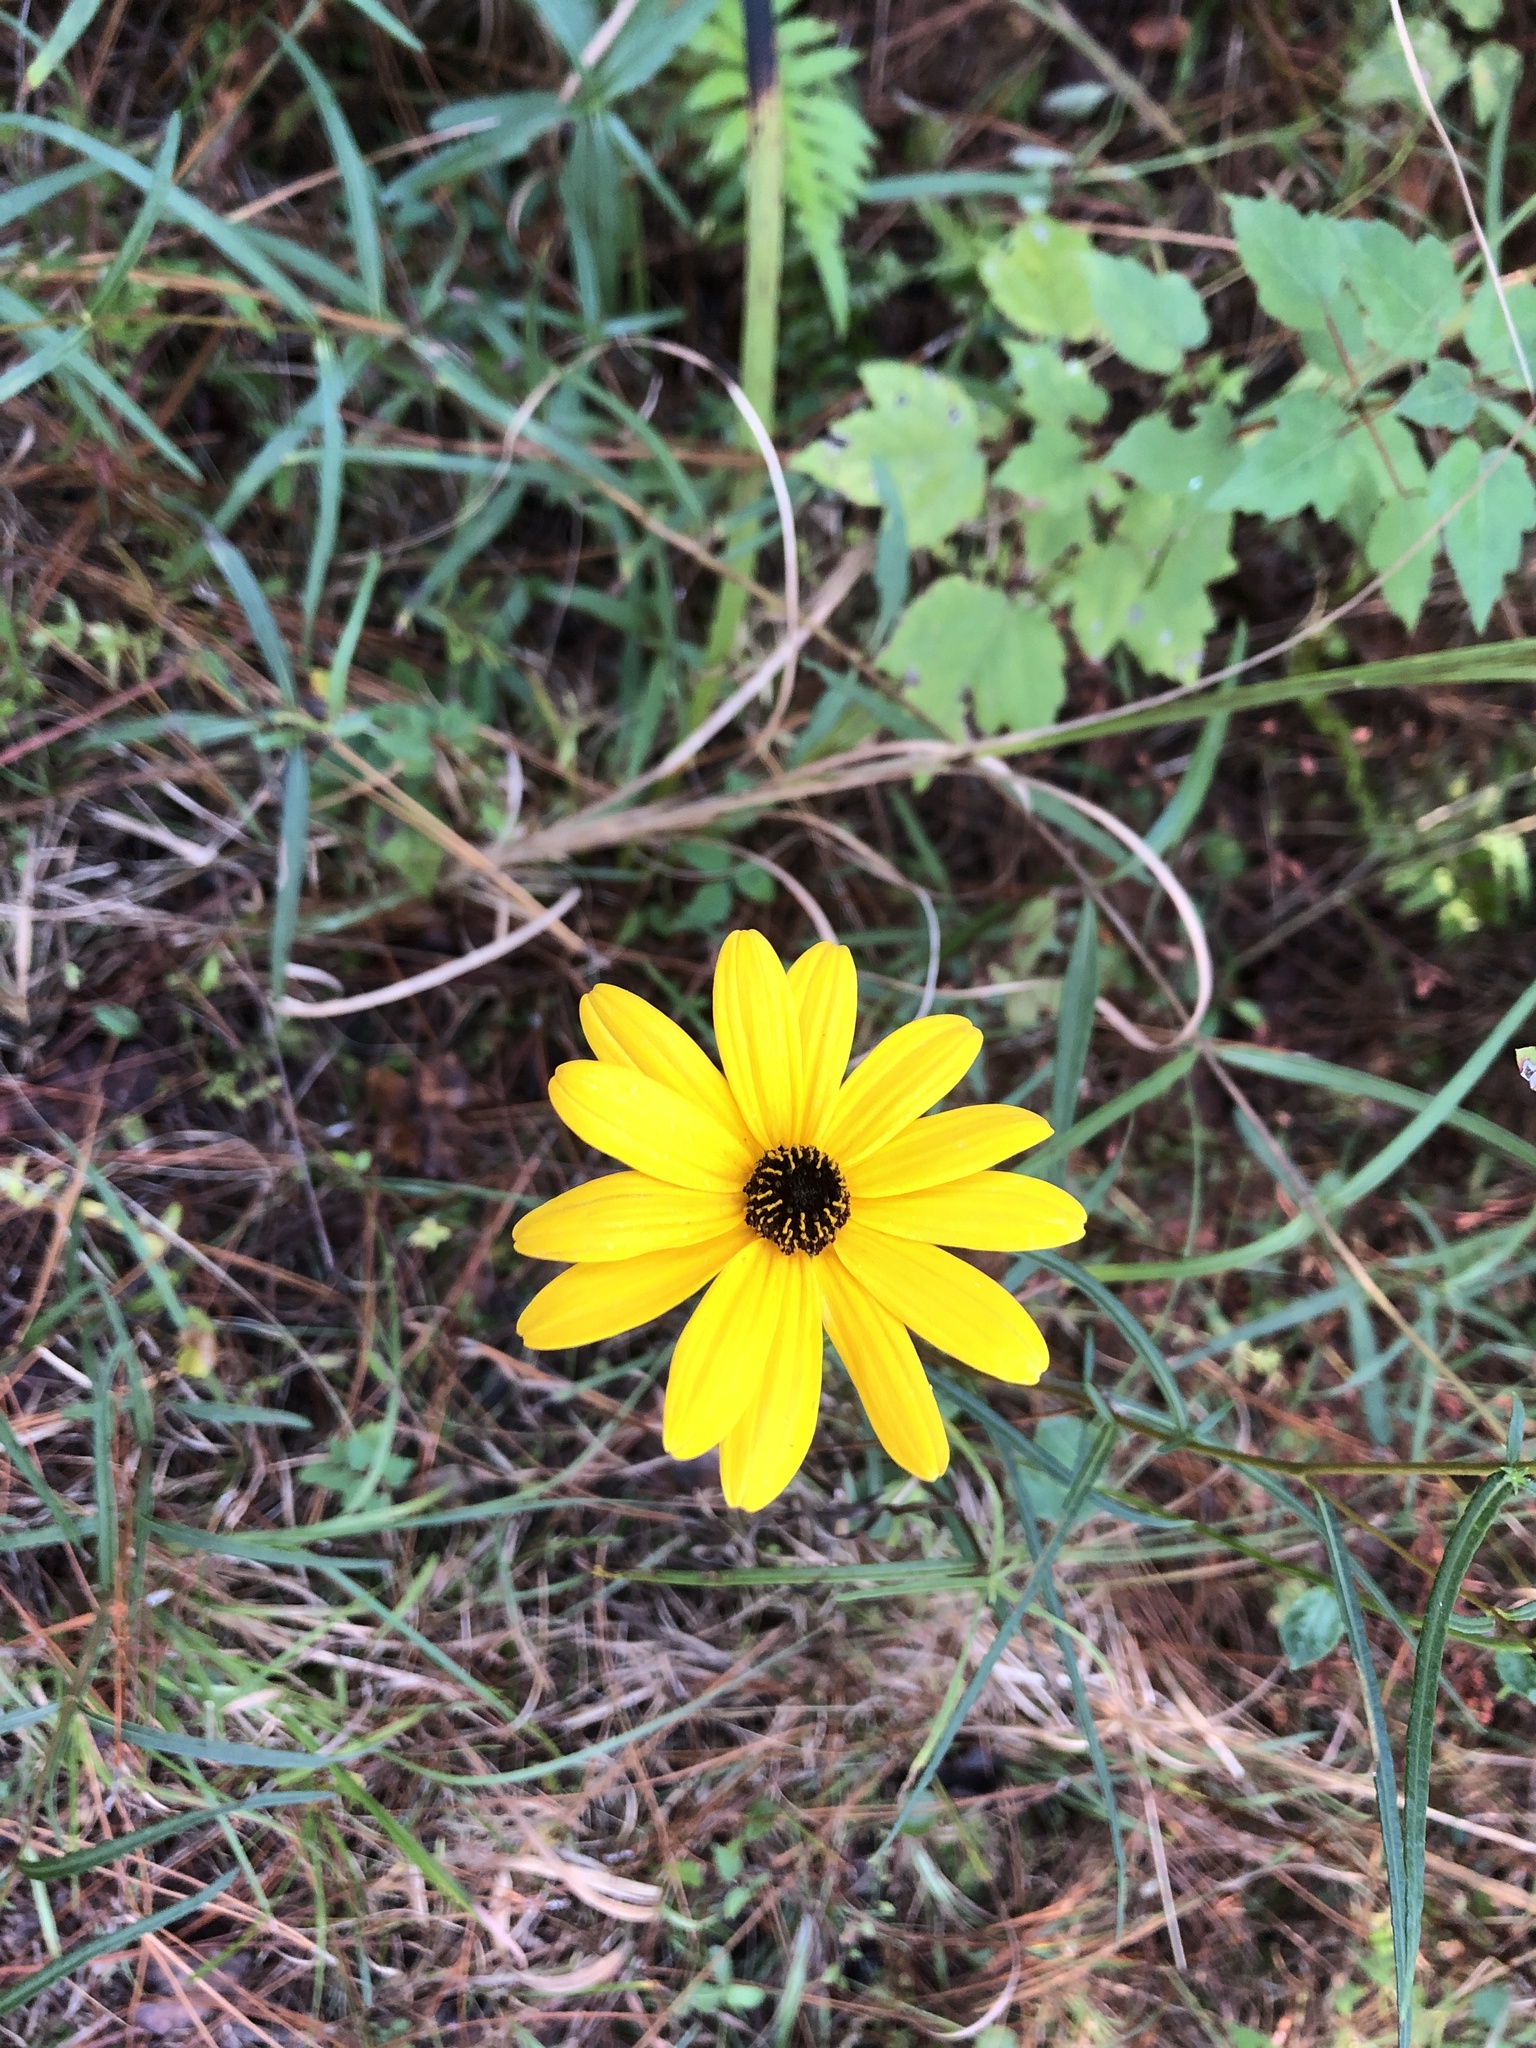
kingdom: Plantae
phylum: Tracheophyta
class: Magnoliopsida
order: Asterales
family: Asteraceae
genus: Helianthus
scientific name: Helianthus angustifolius
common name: Swamp sunflower
